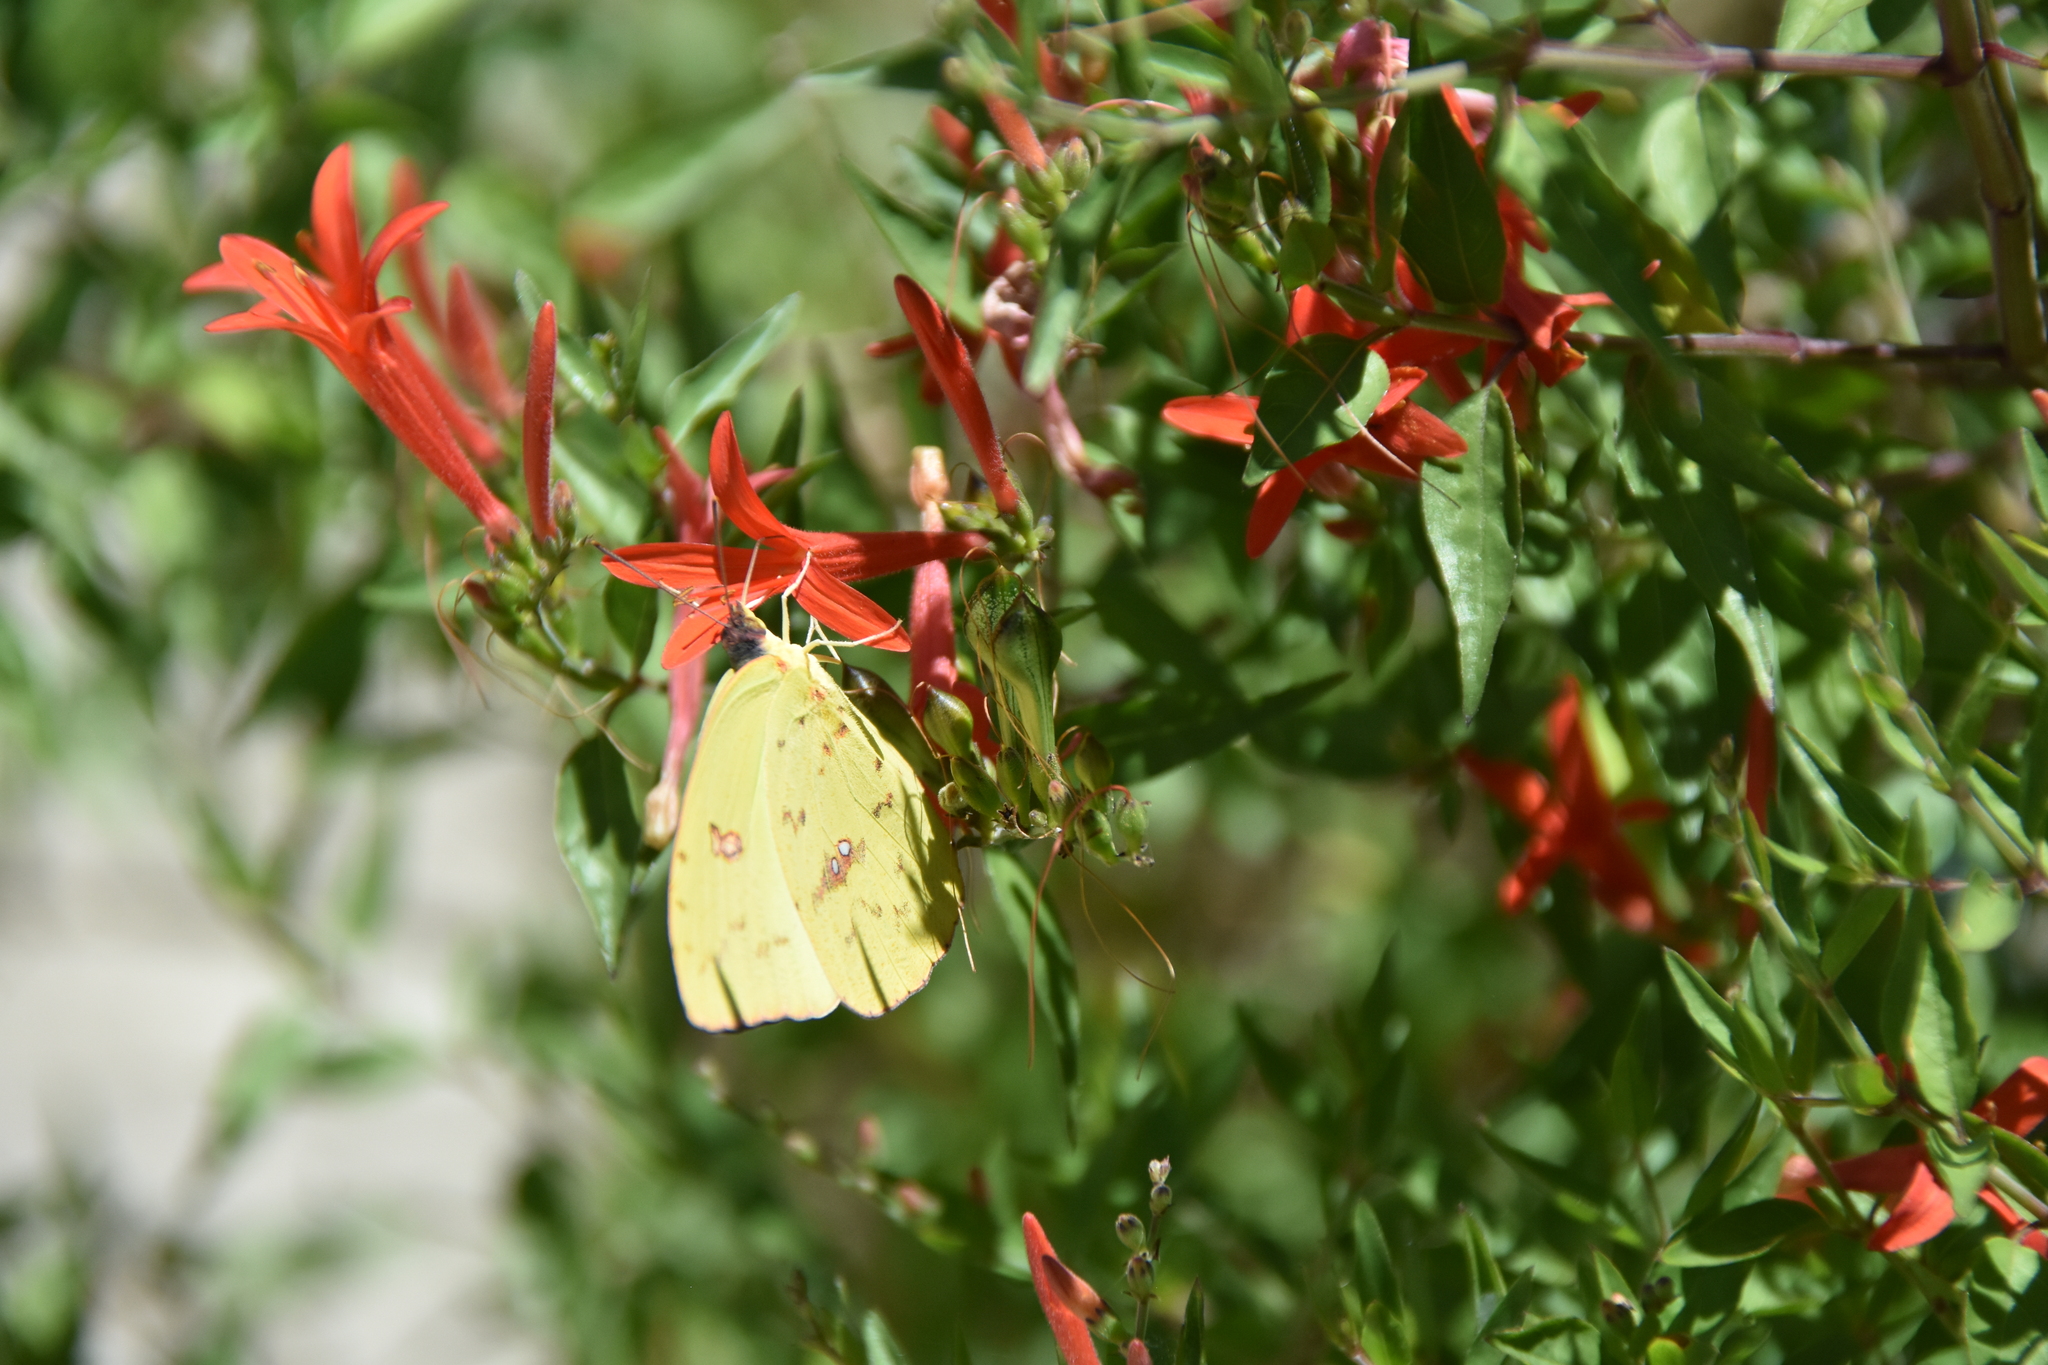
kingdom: Animalia
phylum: Arthropoda
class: Insecta
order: Lepidoptera
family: Pieridae
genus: Phoebis
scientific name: Phoebis sennae
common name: Cloudless sulphur
